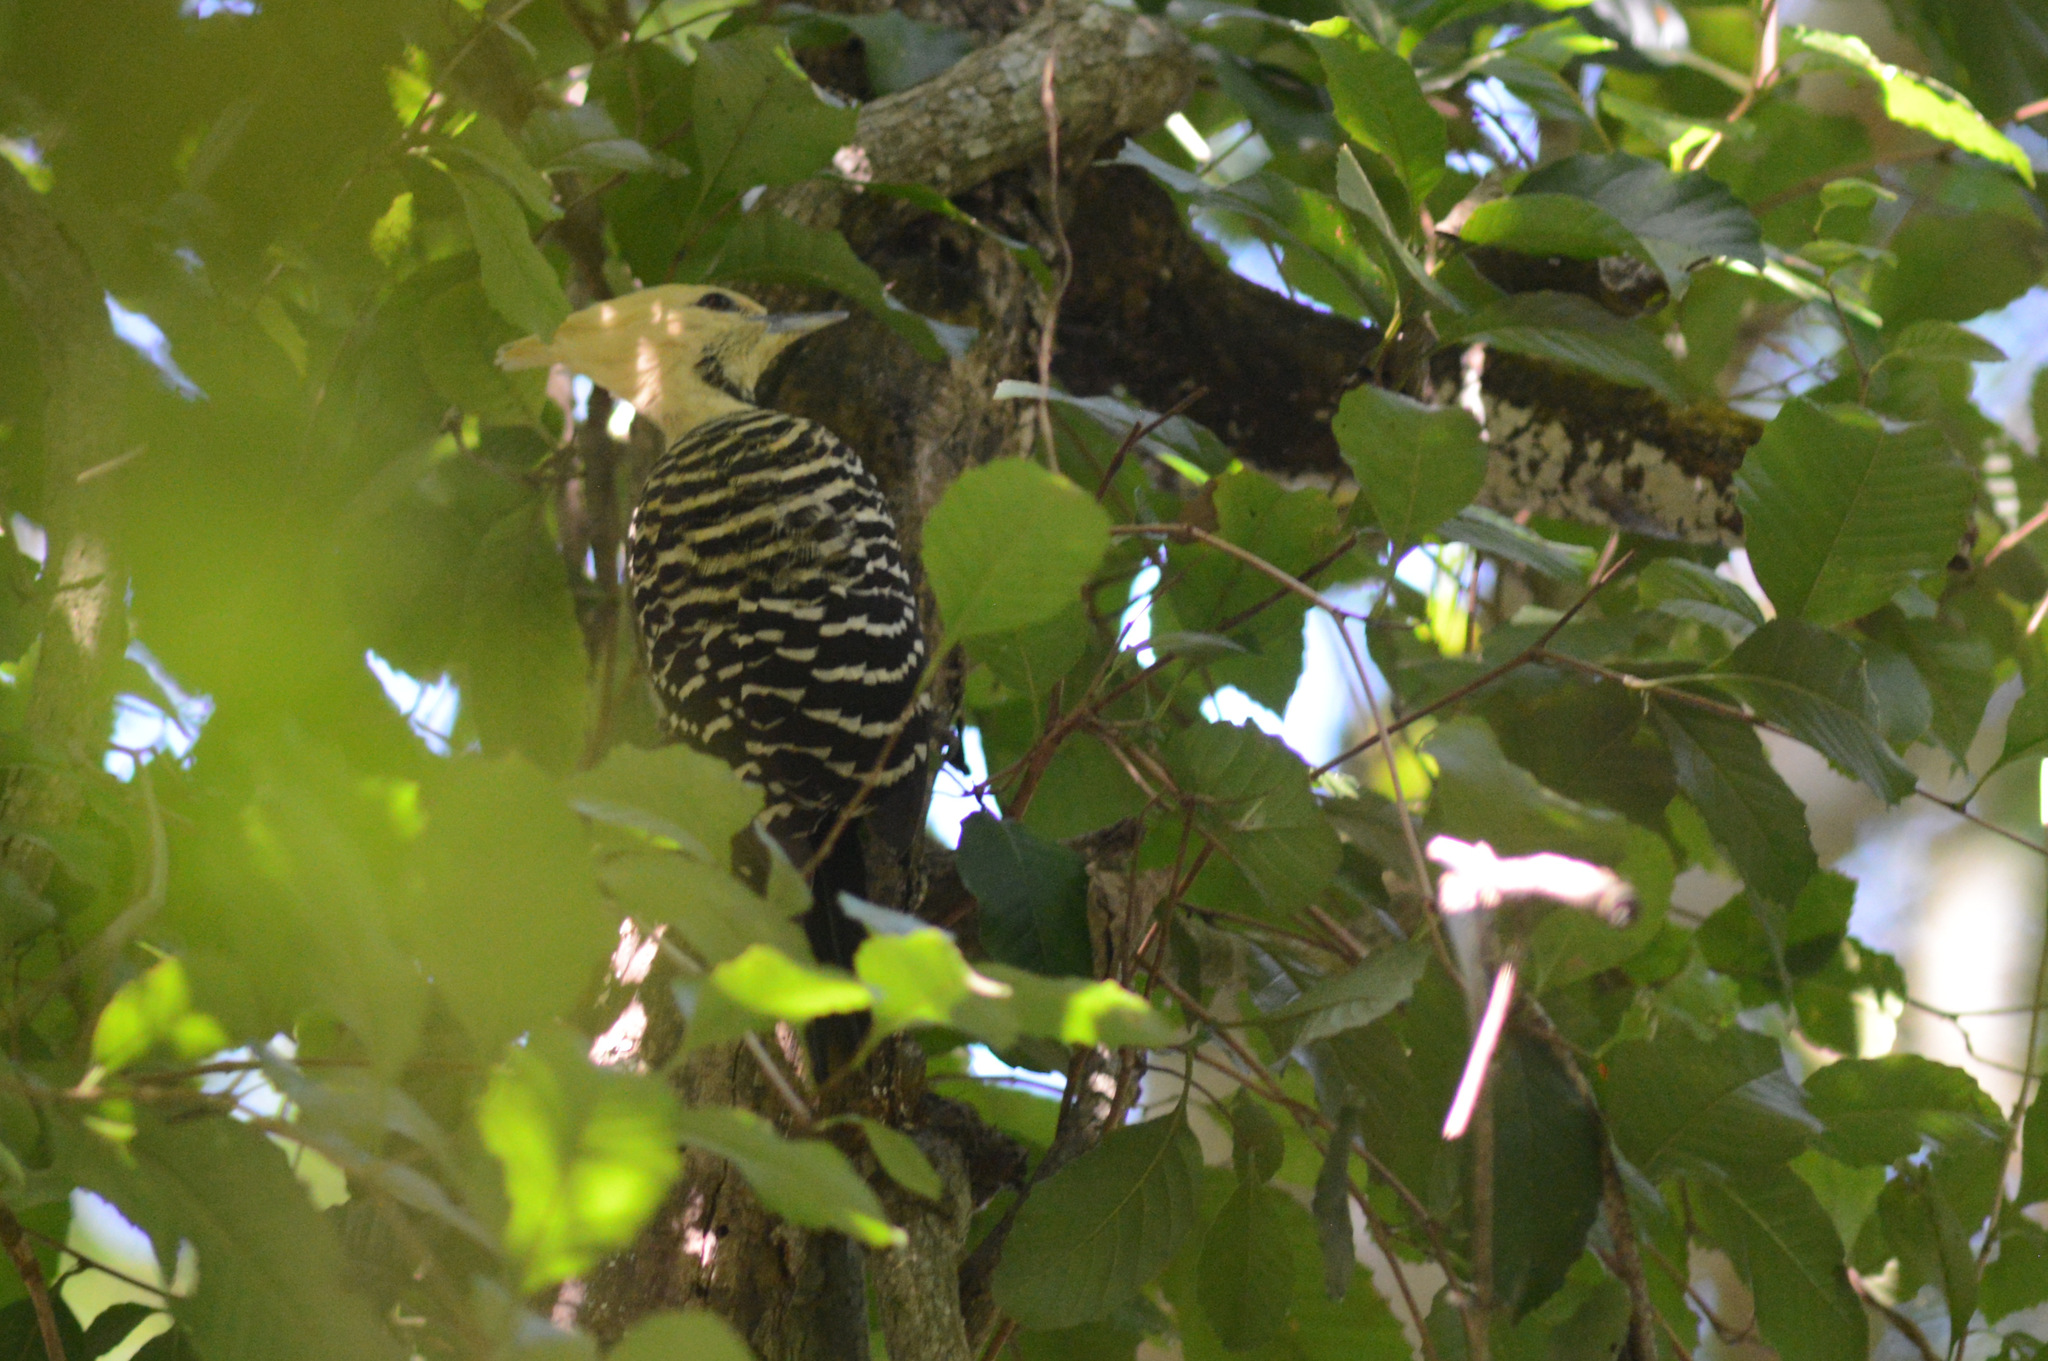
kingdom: Animalia
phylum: Chordata
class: Aves
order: Piciformes
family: Picidae
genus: Celeus
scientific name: Celeus flavescens
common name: Blond-crested woodpecker
